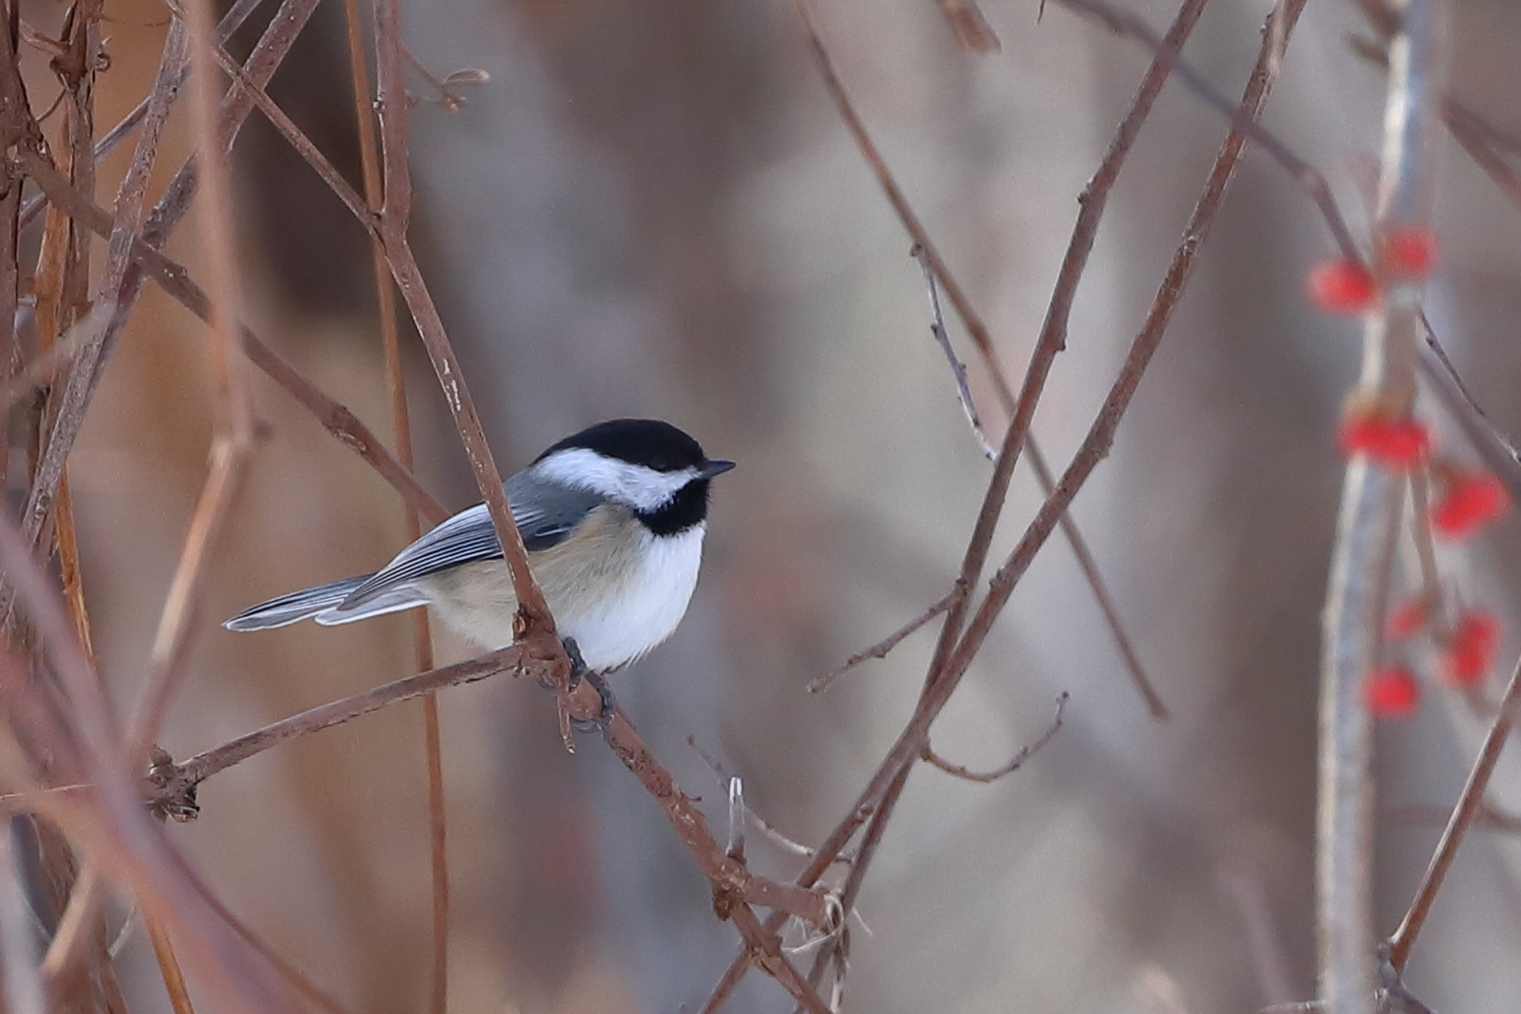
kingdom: Animalia
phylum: Chordata
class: Aves
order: Passeriformes
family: Paridae
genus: Poecile
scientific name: Poecile atricapillus
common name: Black-capped chickadee
